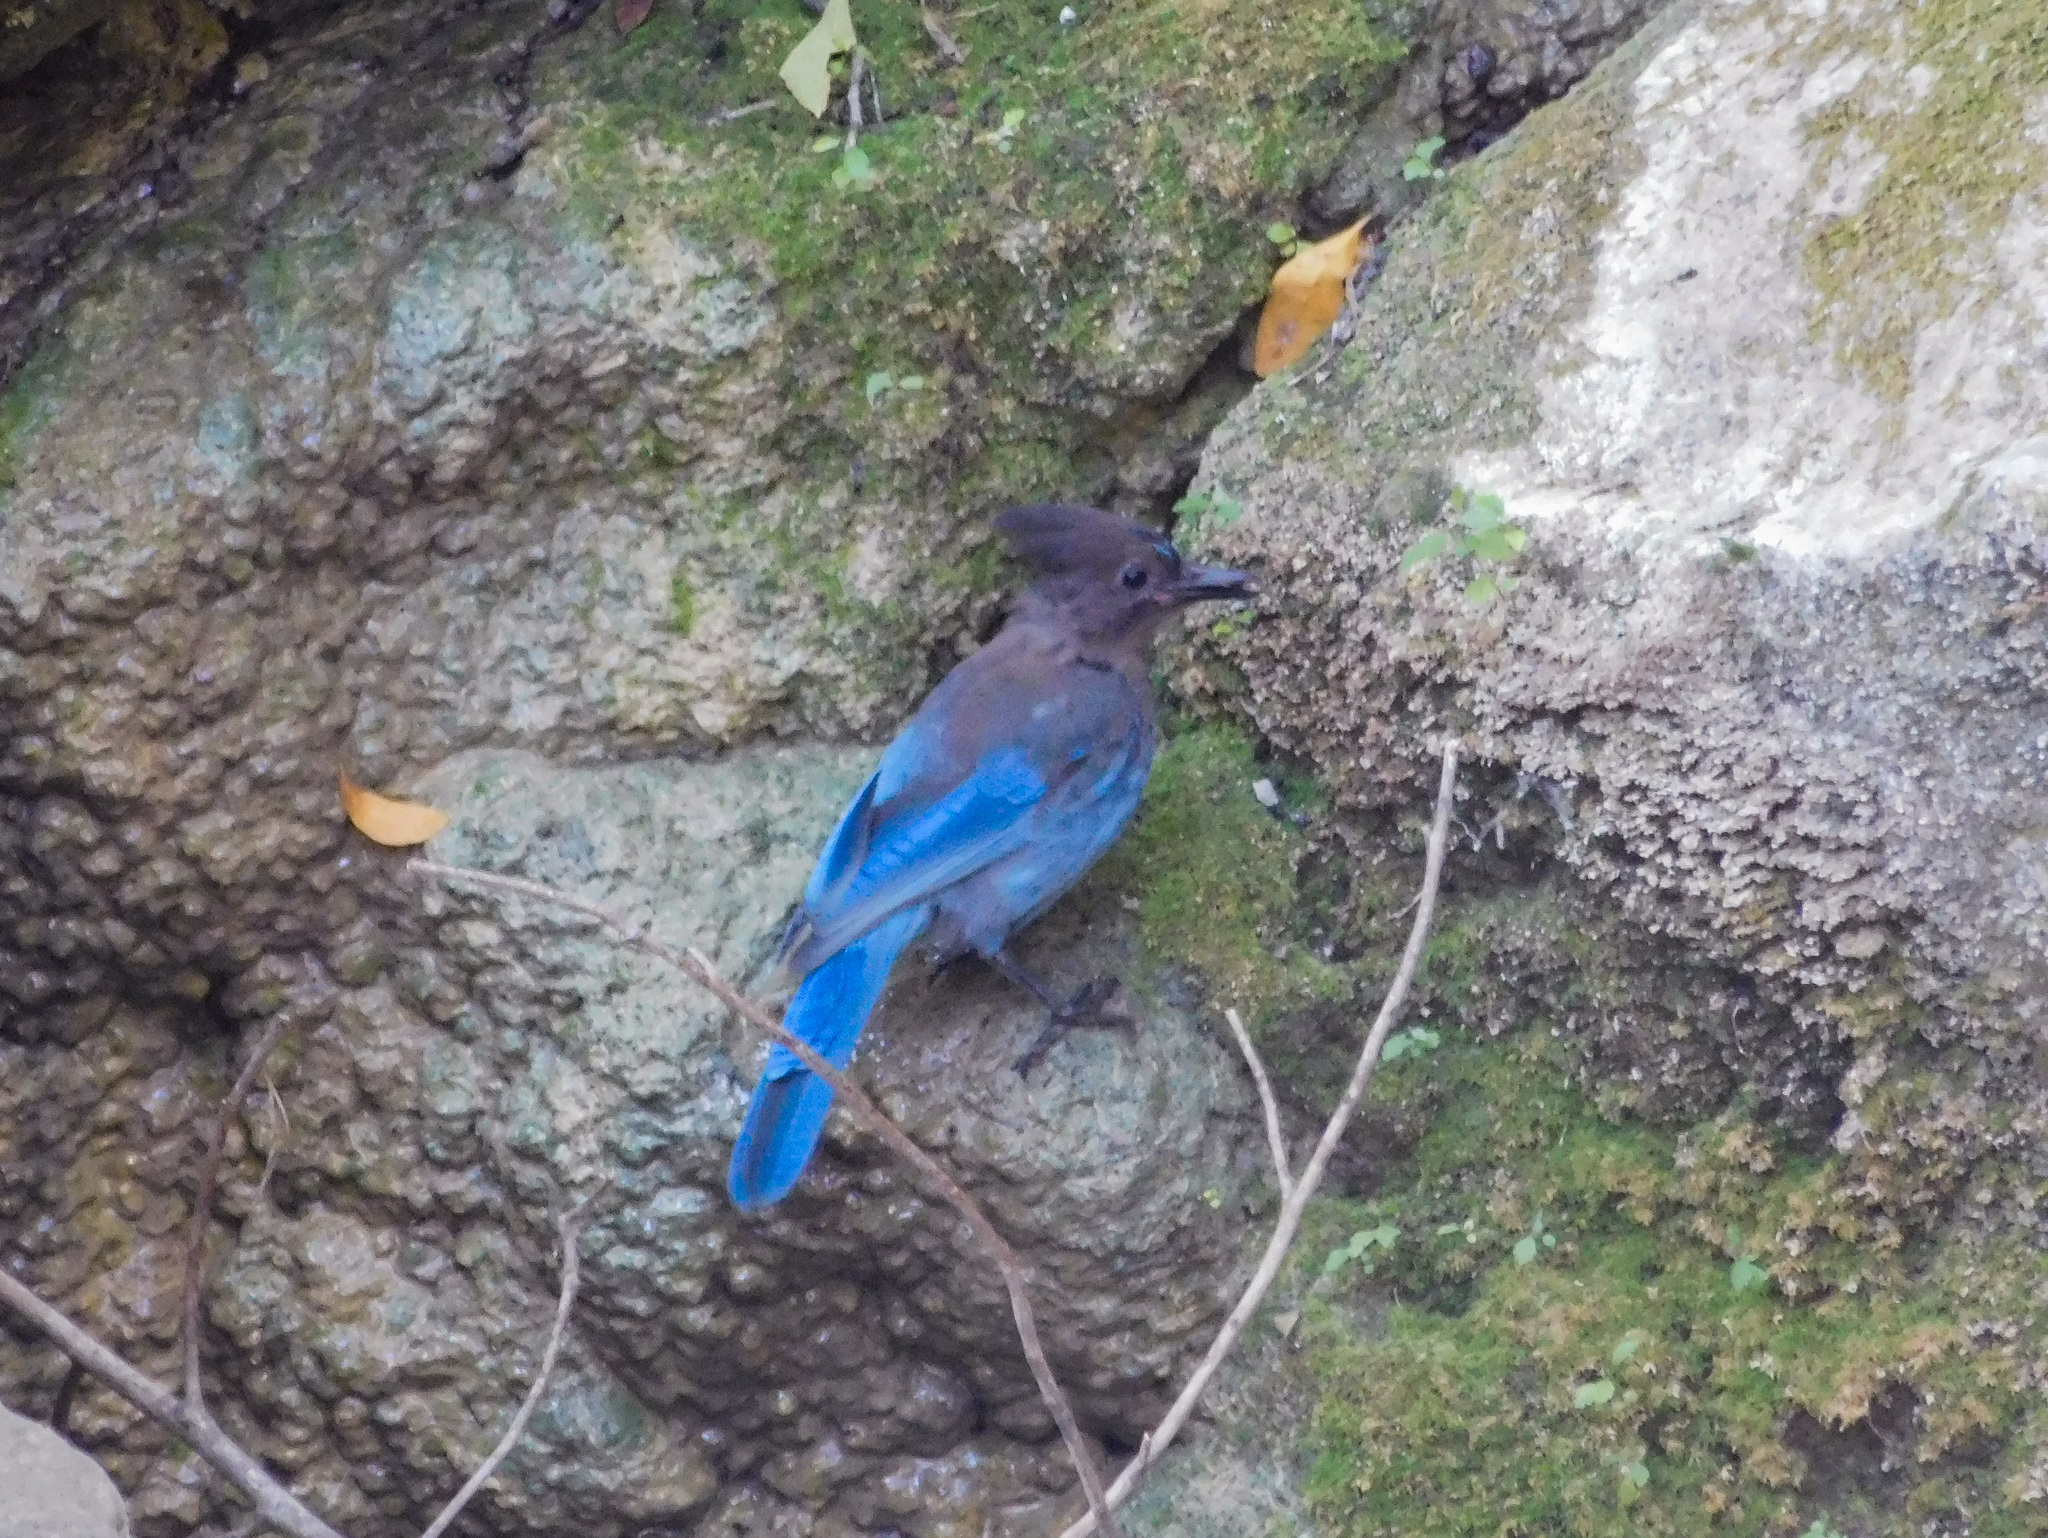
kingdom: Animalia
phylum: Chordata
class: Aves
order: Passeriformes
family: Corvidae
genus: Cyanocitta
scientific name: Cyanocitta stelleri
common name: Steller's jay
